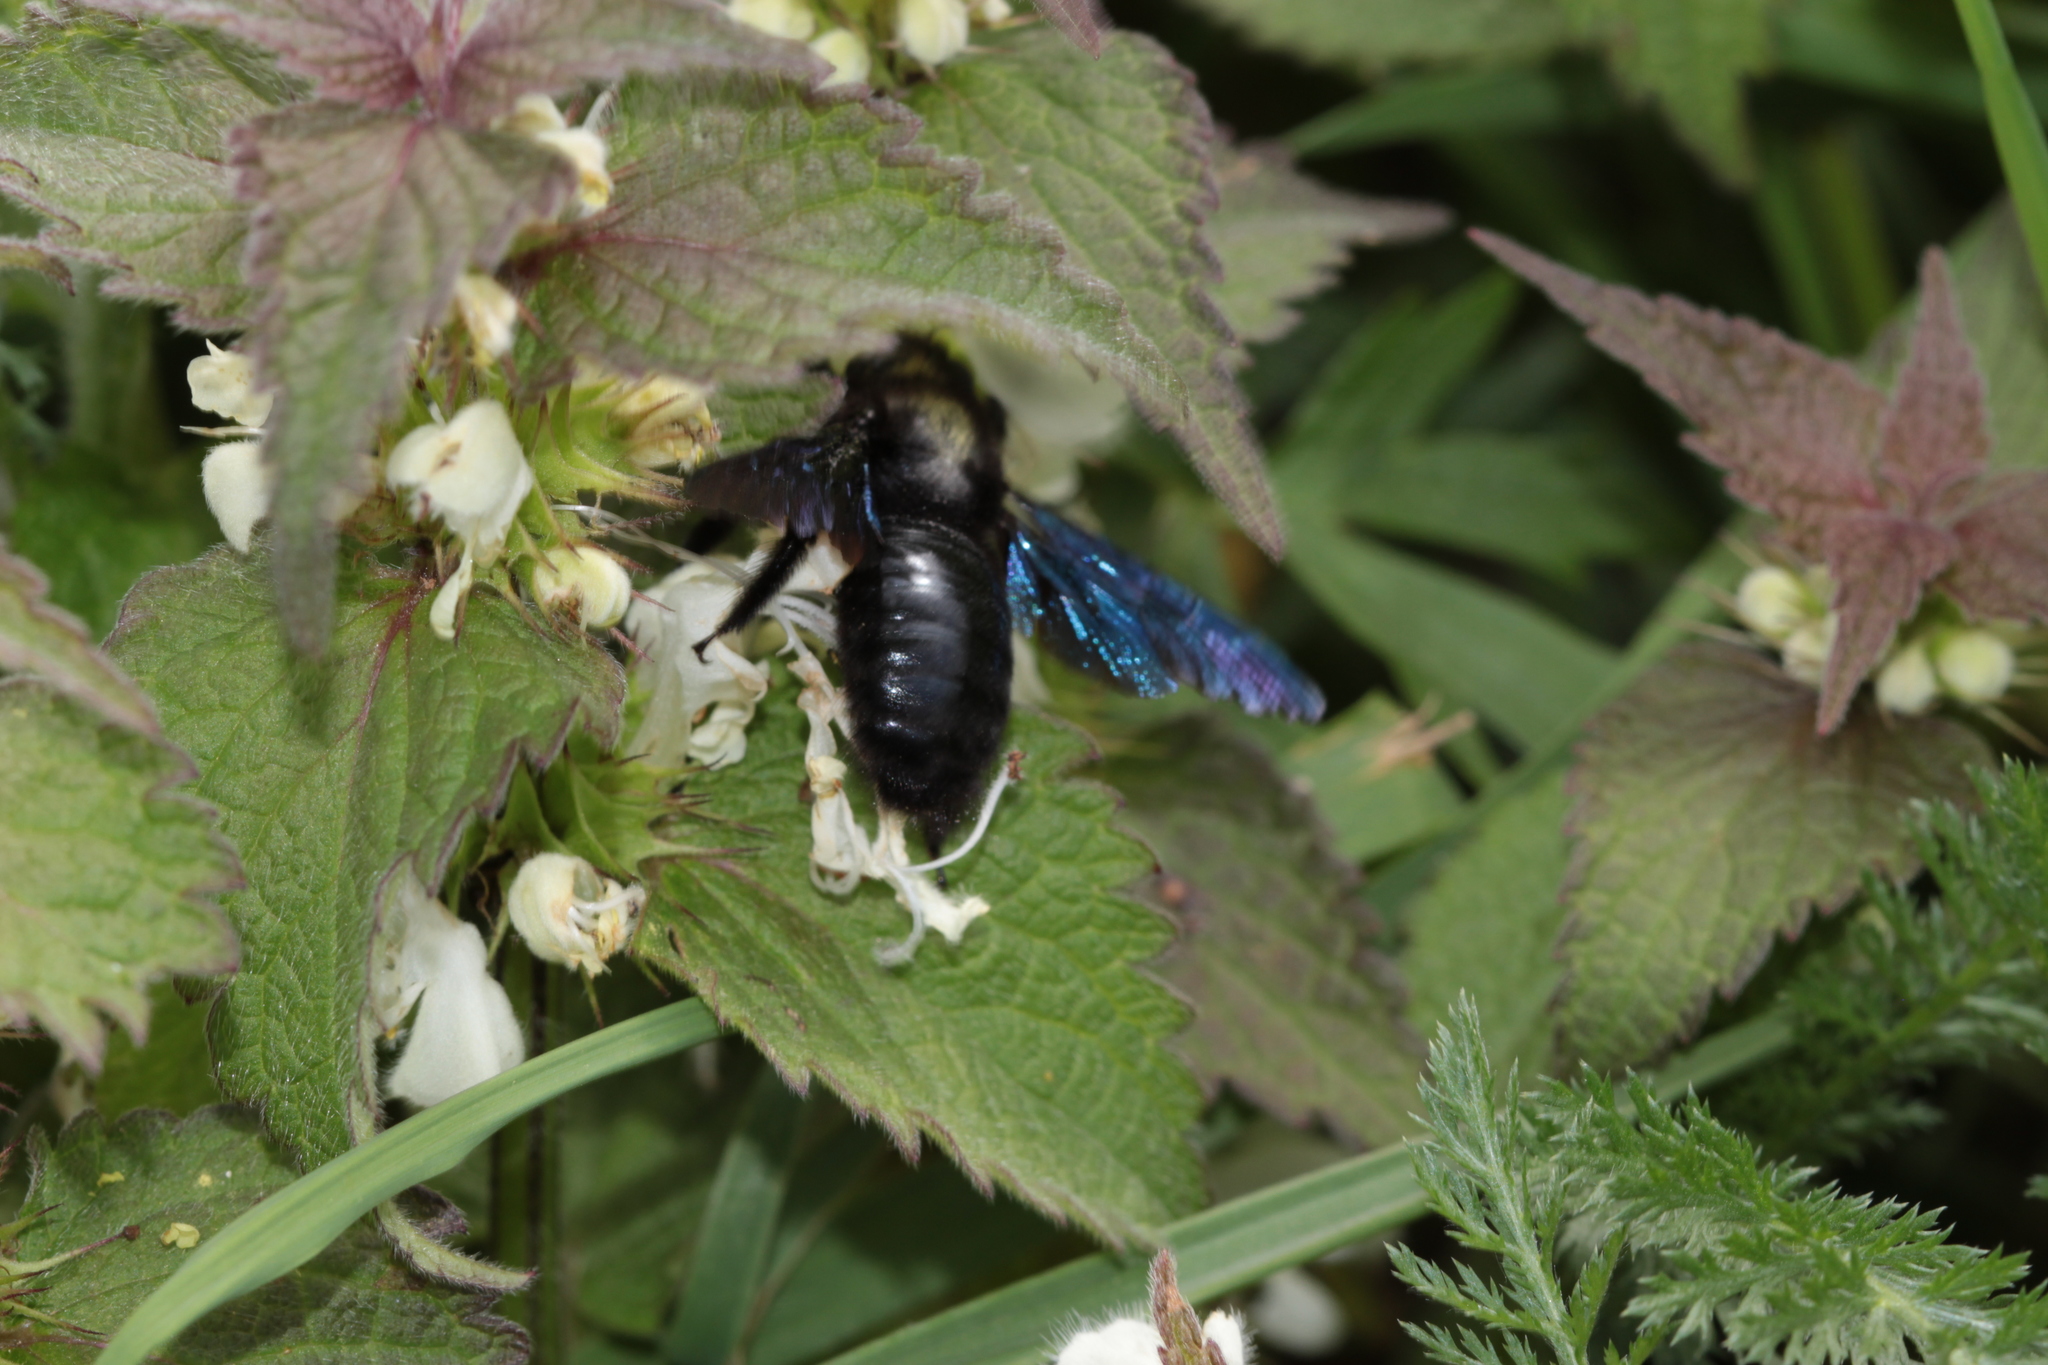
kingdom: Animalia
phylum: Arthropoda
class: Insecta
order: Hymenoptera
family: Apidae
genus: Xylocopa
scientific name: Xylocopa violacea
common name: Violet carpenter bee
